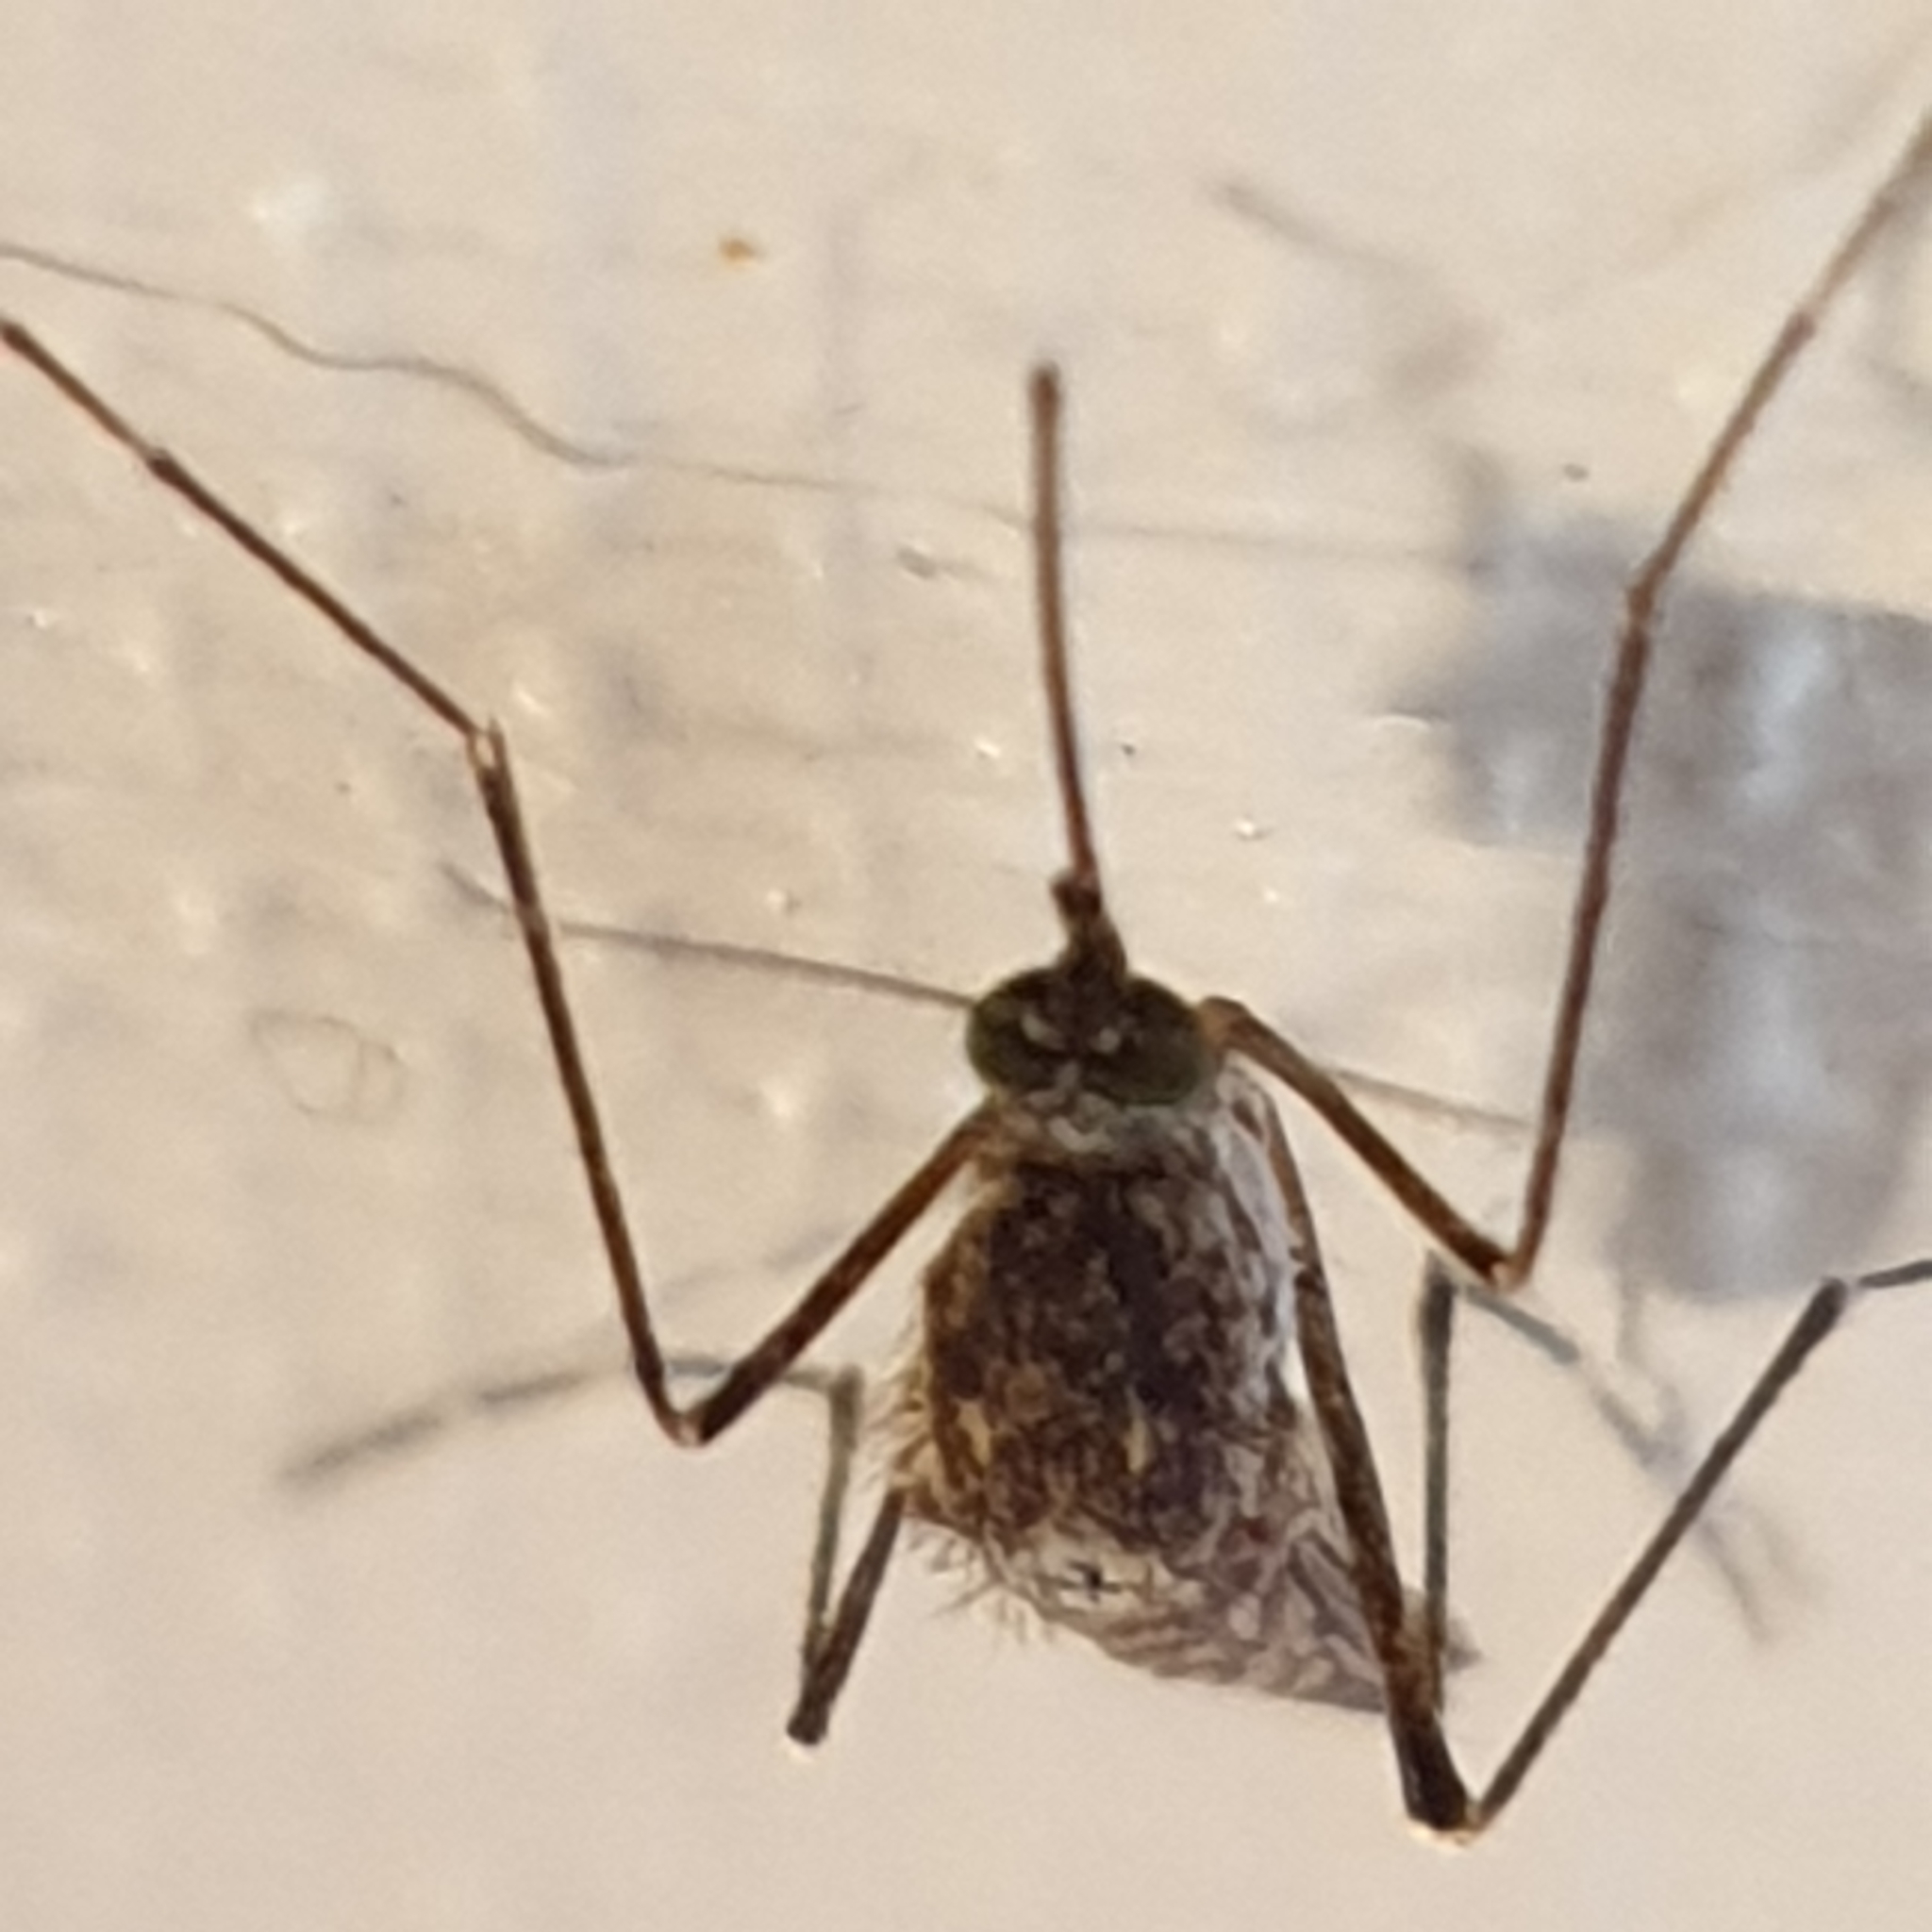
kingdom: Animalia
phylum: Arthropoda
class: Insecta
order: Diptera
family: Culicidae
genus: Culiseta
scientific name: Culiseta alaskaensis
